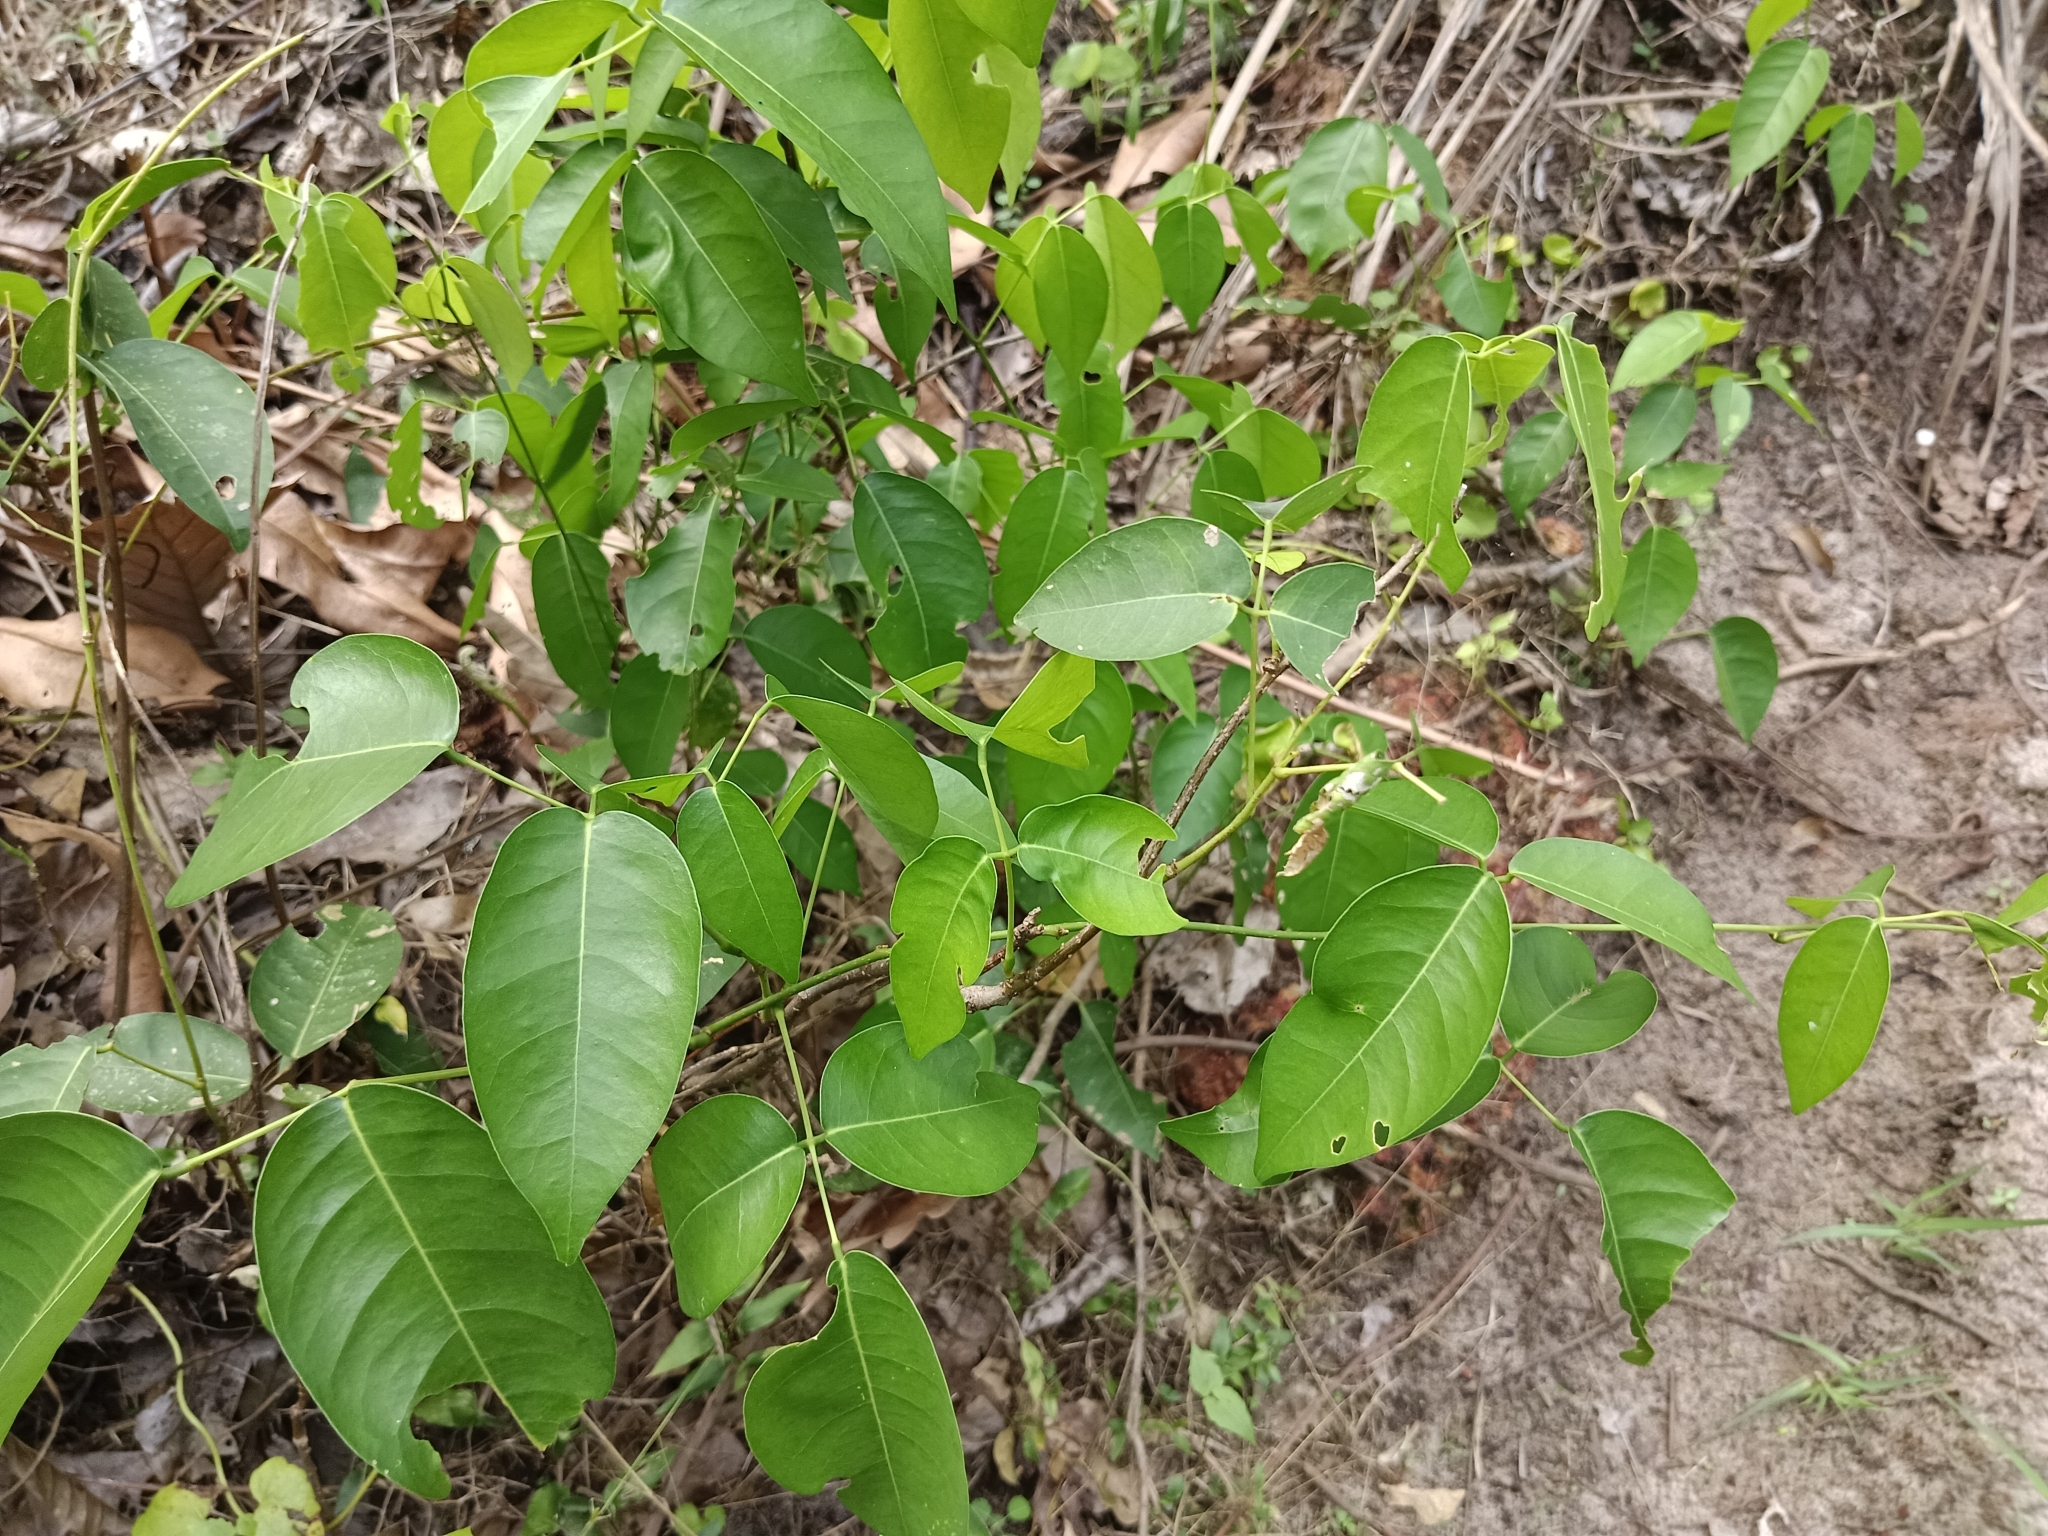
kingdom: Plantae
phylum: Tracheophyta
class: Magnoliopsida
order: Fabales
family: Fabaceae
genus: Derris
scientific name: Derris trifoliata
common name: Three-leaf derris
